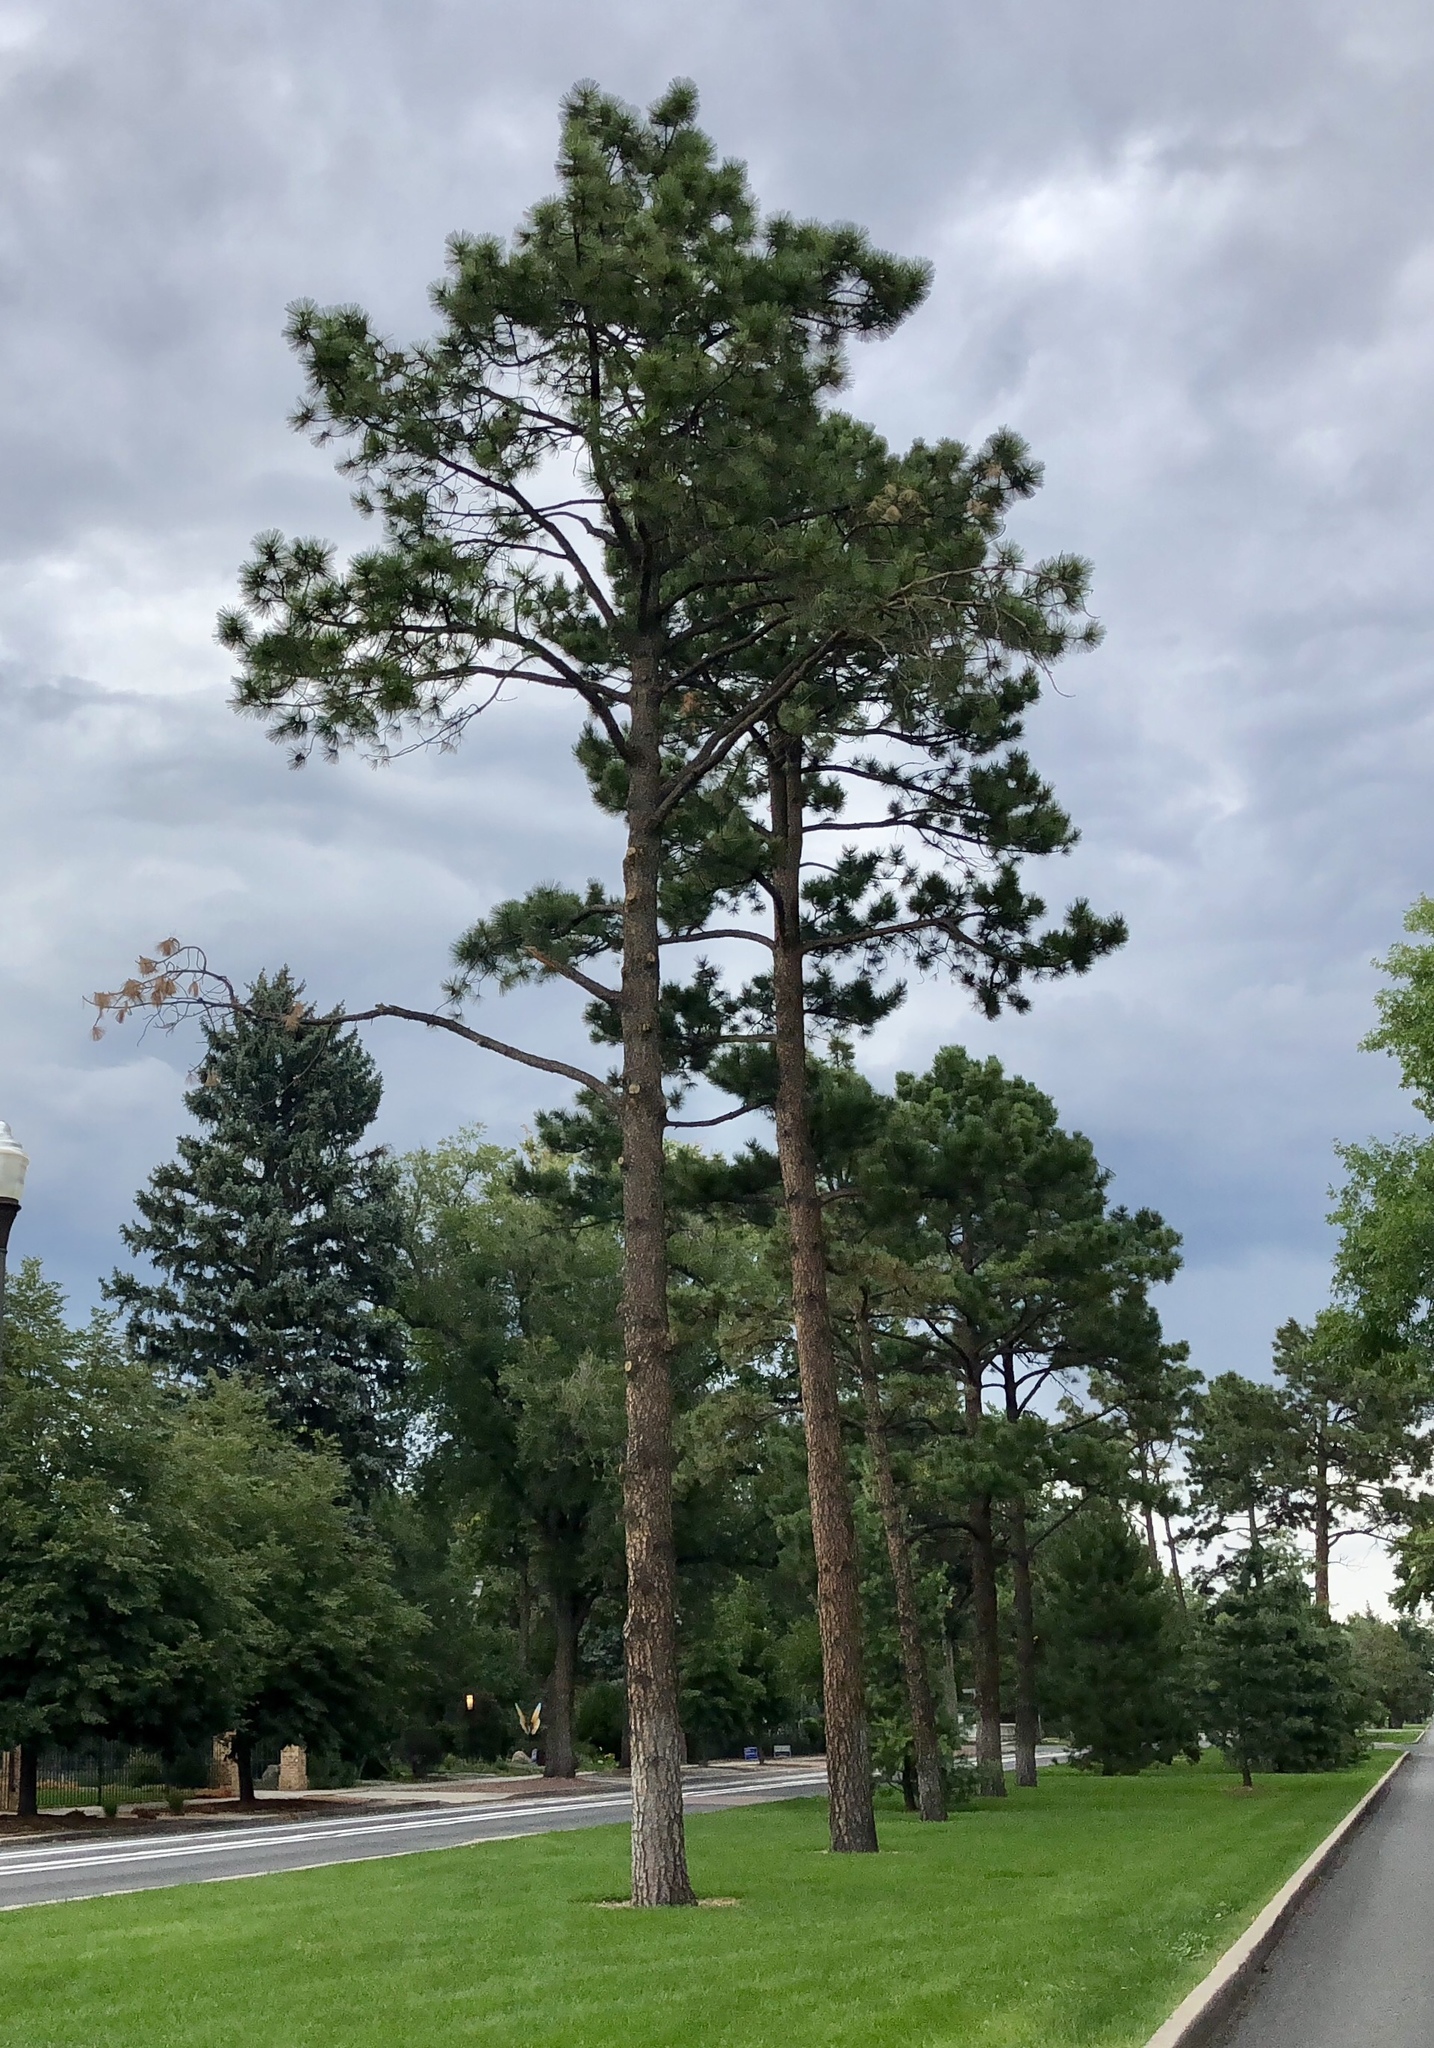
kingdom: Plantae
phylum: Tracheophyta
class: Pinopsida
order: Pinales
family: Pinaceae
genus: Pinus
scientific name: Pinus ponderosa
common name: Western yellow-pine
